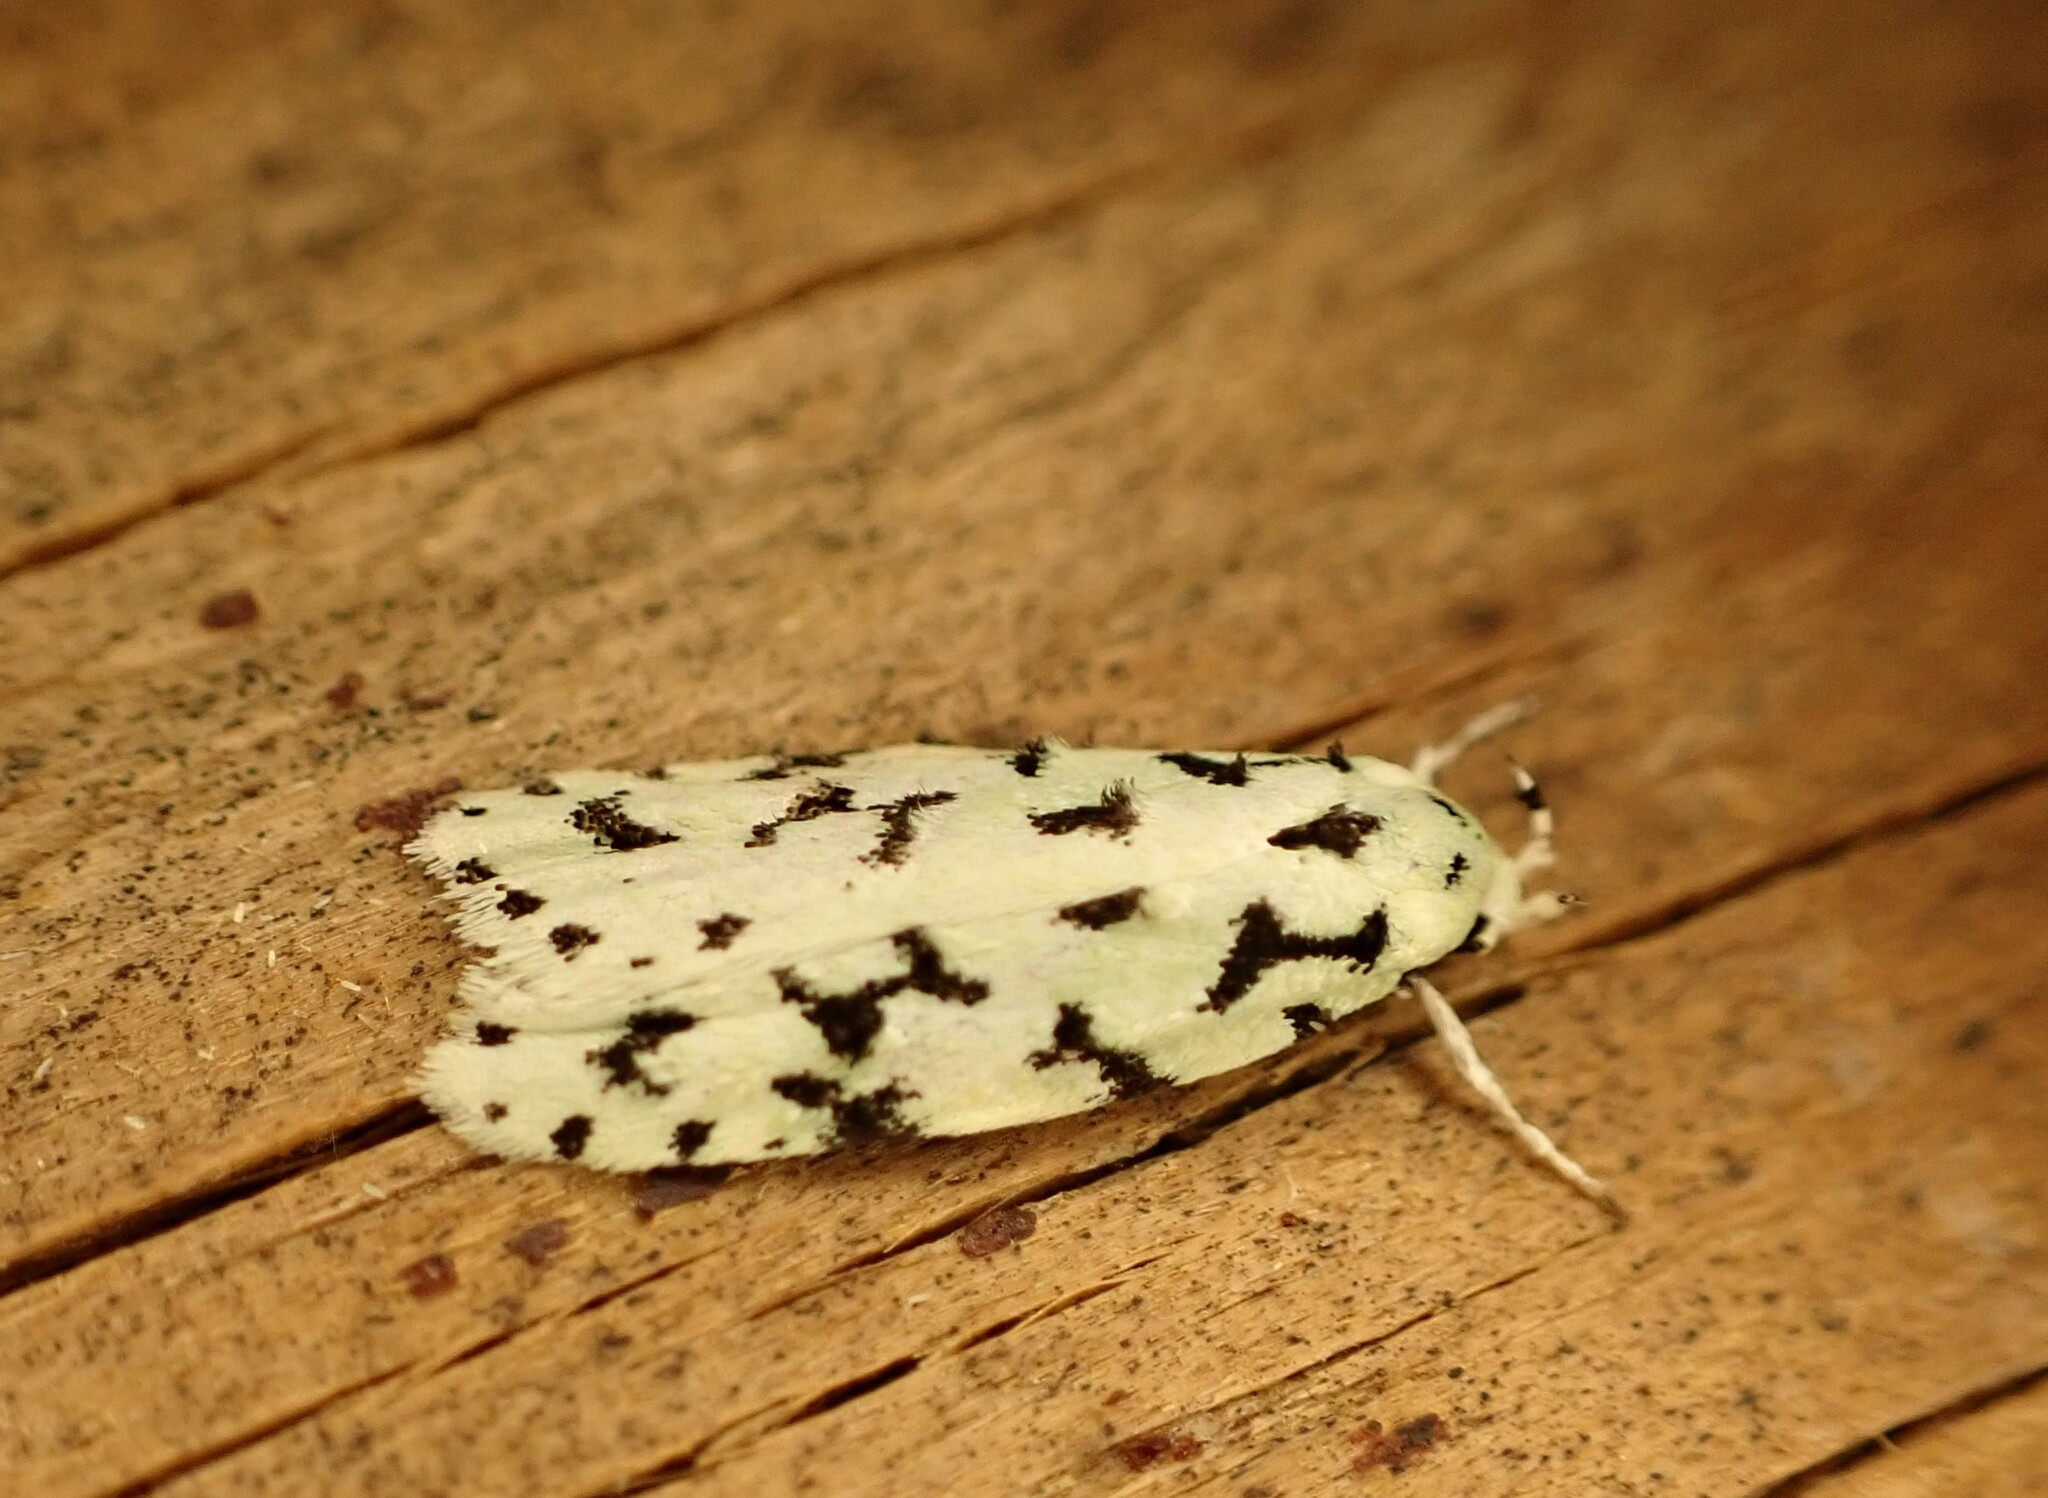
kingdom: Animalia
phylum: Arthropoda
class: Insecta
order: Lepidoptera
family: Oecophoridae
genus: Izatha
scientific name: Izatha huttoni
